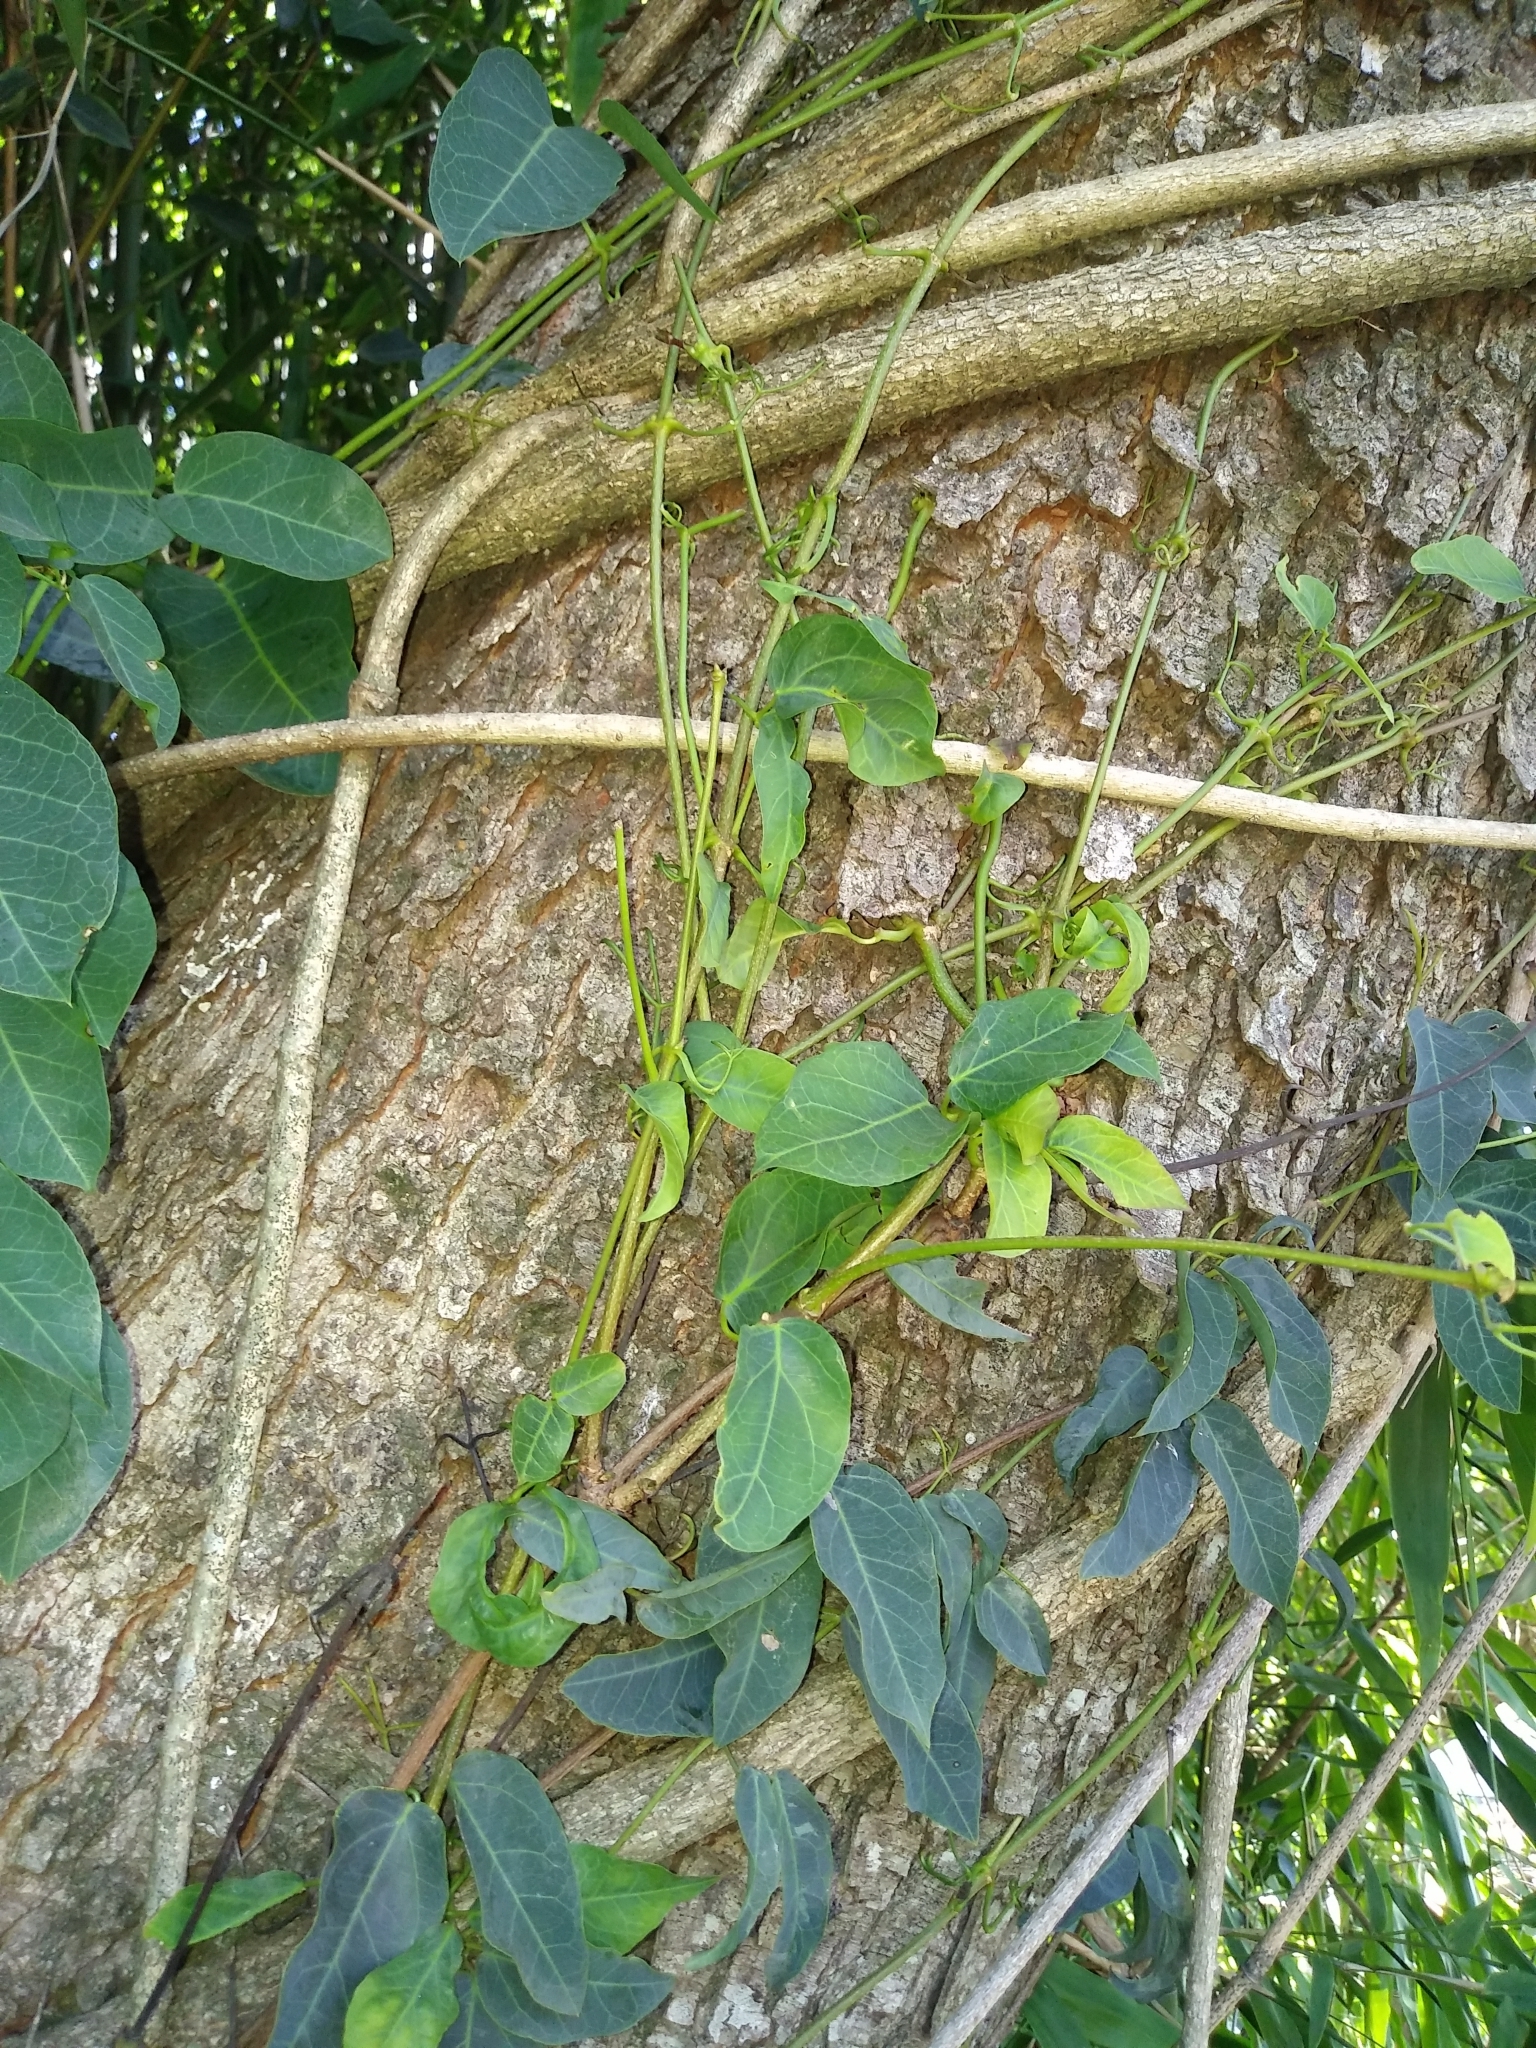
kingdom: Plantae
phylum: Tracheophyta
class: Magnoliopsida
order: Lamiales
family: Bignoniaceae
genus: Dolichandra
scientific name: Dolichandra cynanchoides
